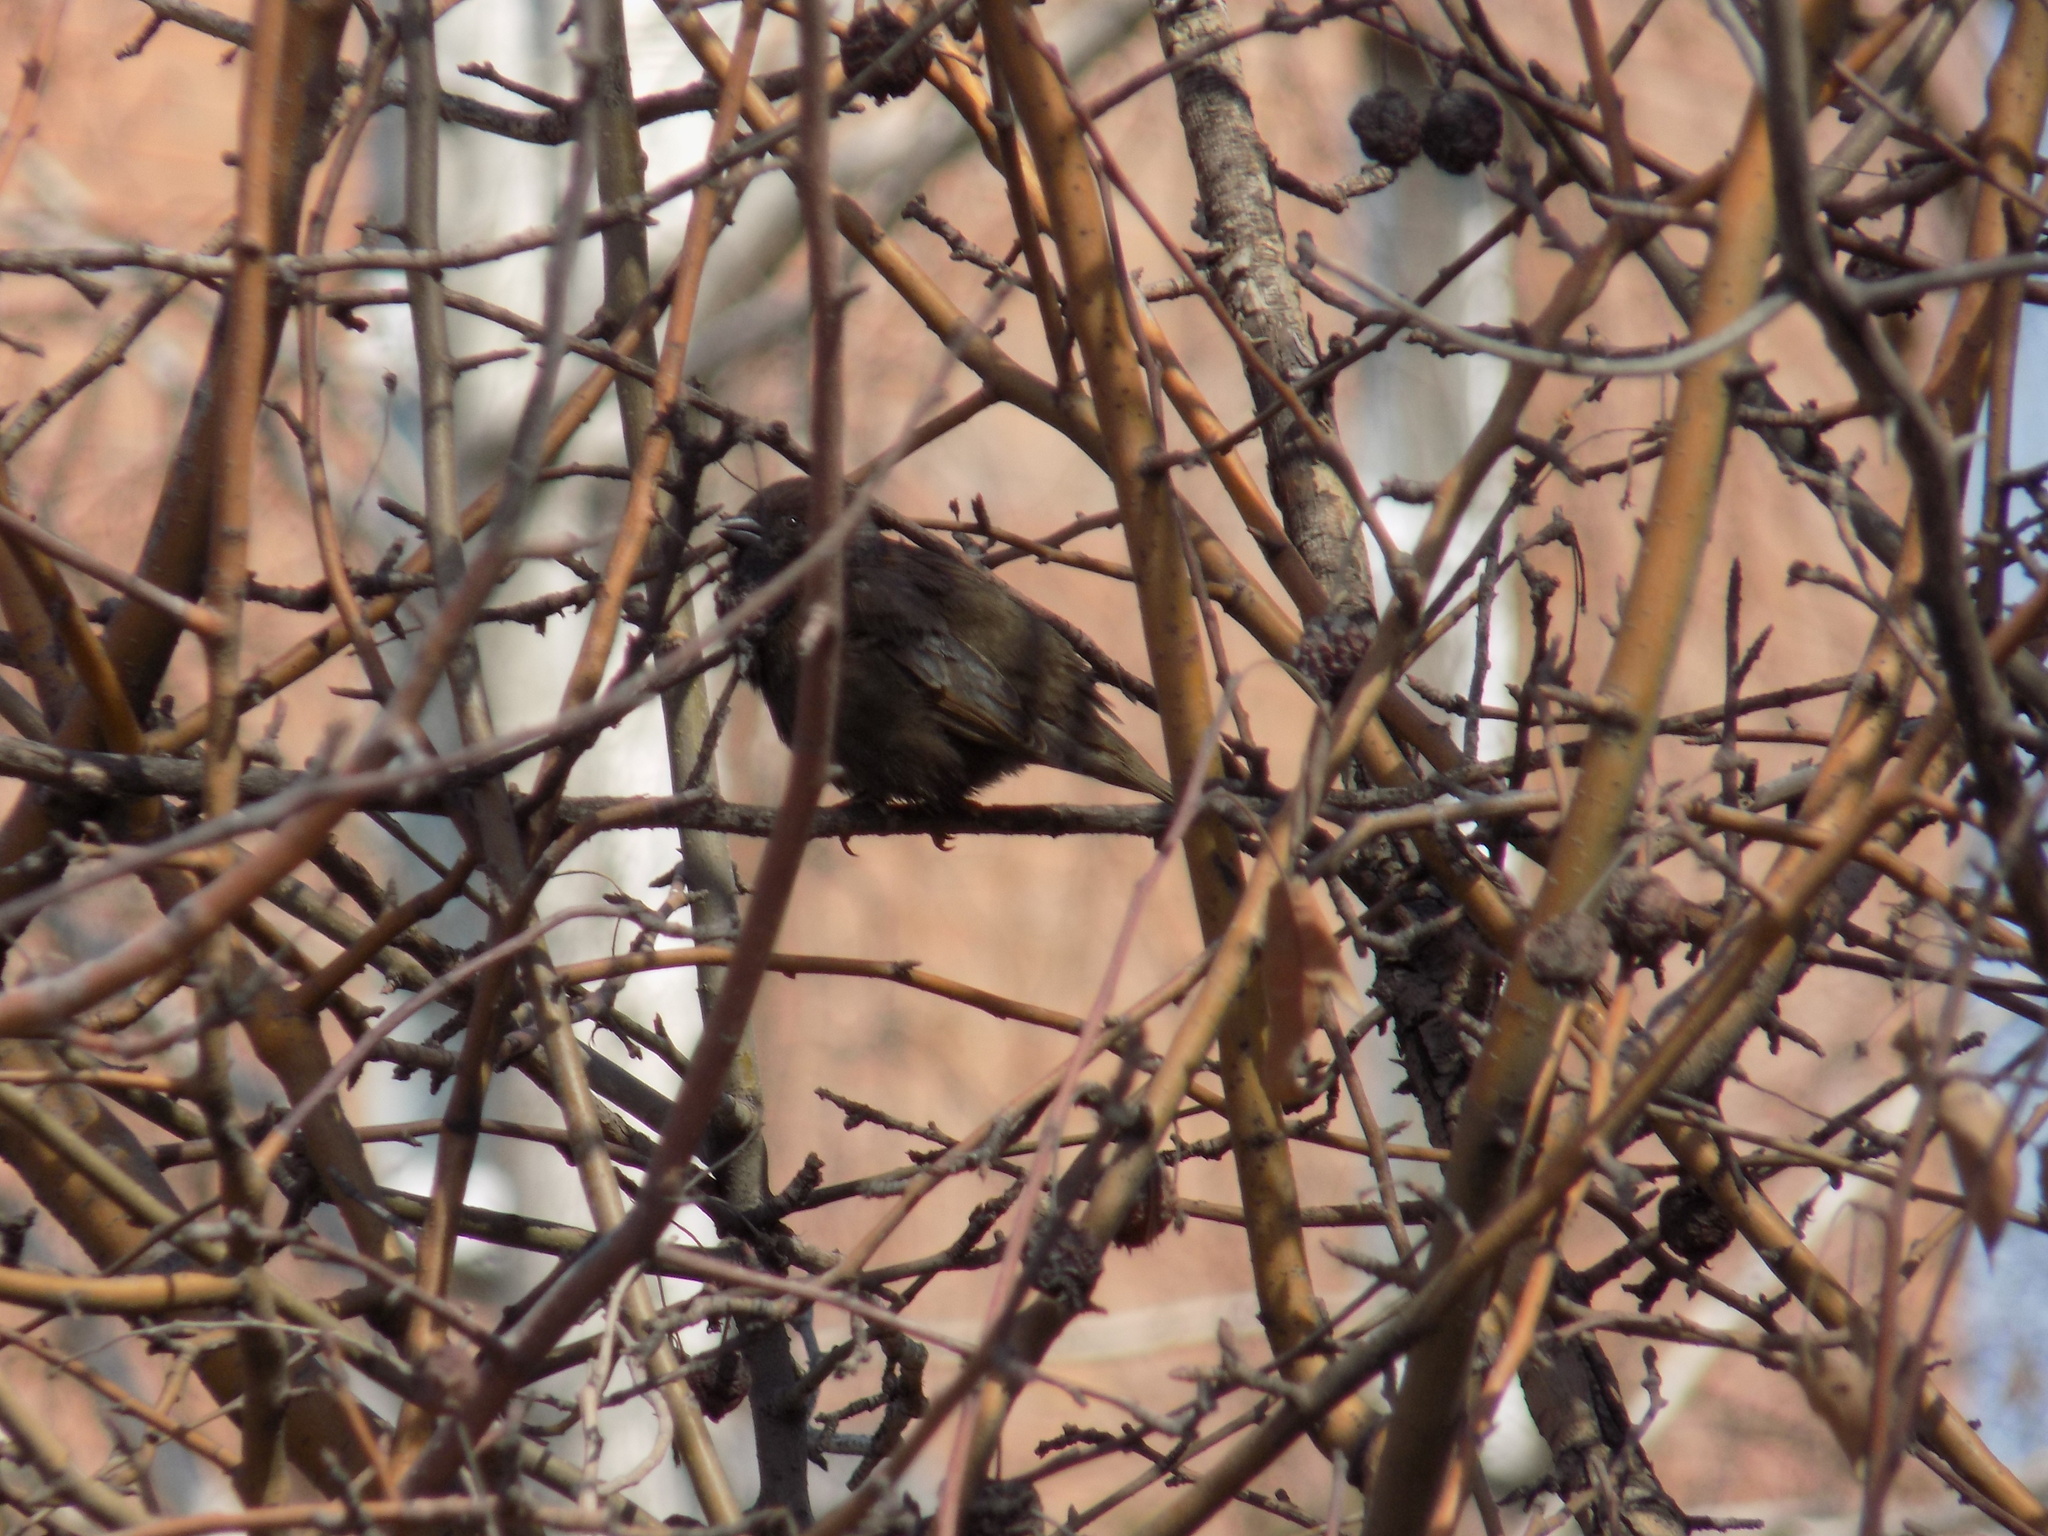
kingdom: Animalia
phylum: Chordata
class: Aves
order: Passeriformes
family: Passeridae
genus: Passer
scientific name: Passer domesticus
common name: House sparrow
